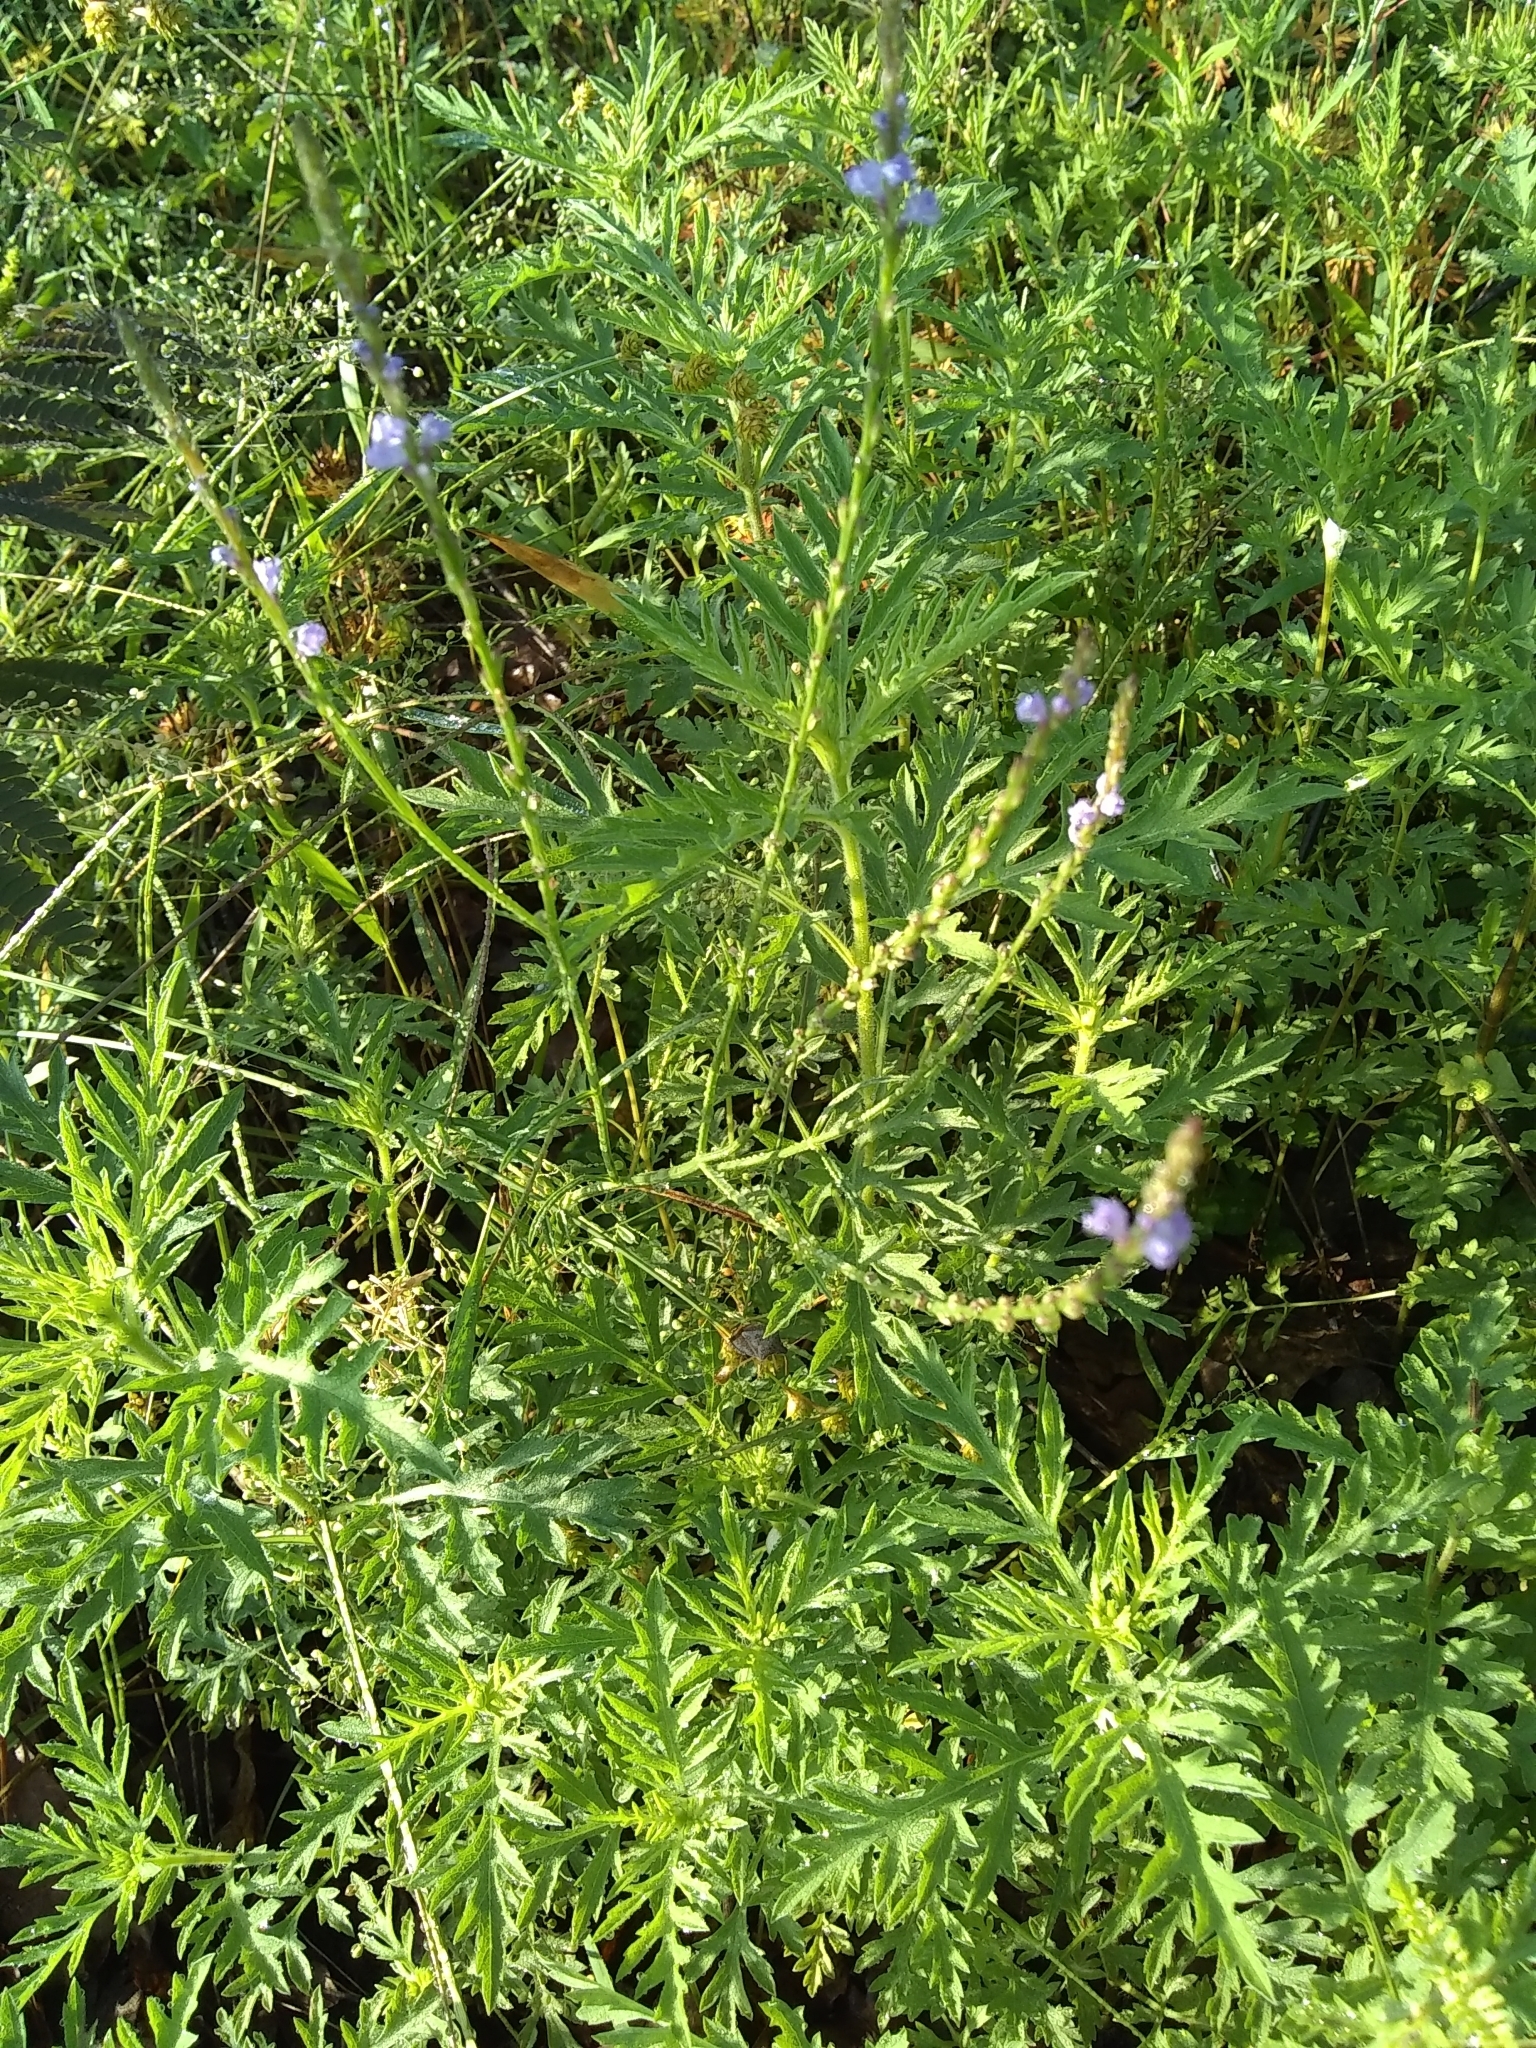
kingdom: Plantae
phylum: Tracheophyta
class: Magnoliopsida
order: Lamiales
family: Verbenaceae
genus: Verbena
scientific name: Verbena halei
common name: Texas vervain
